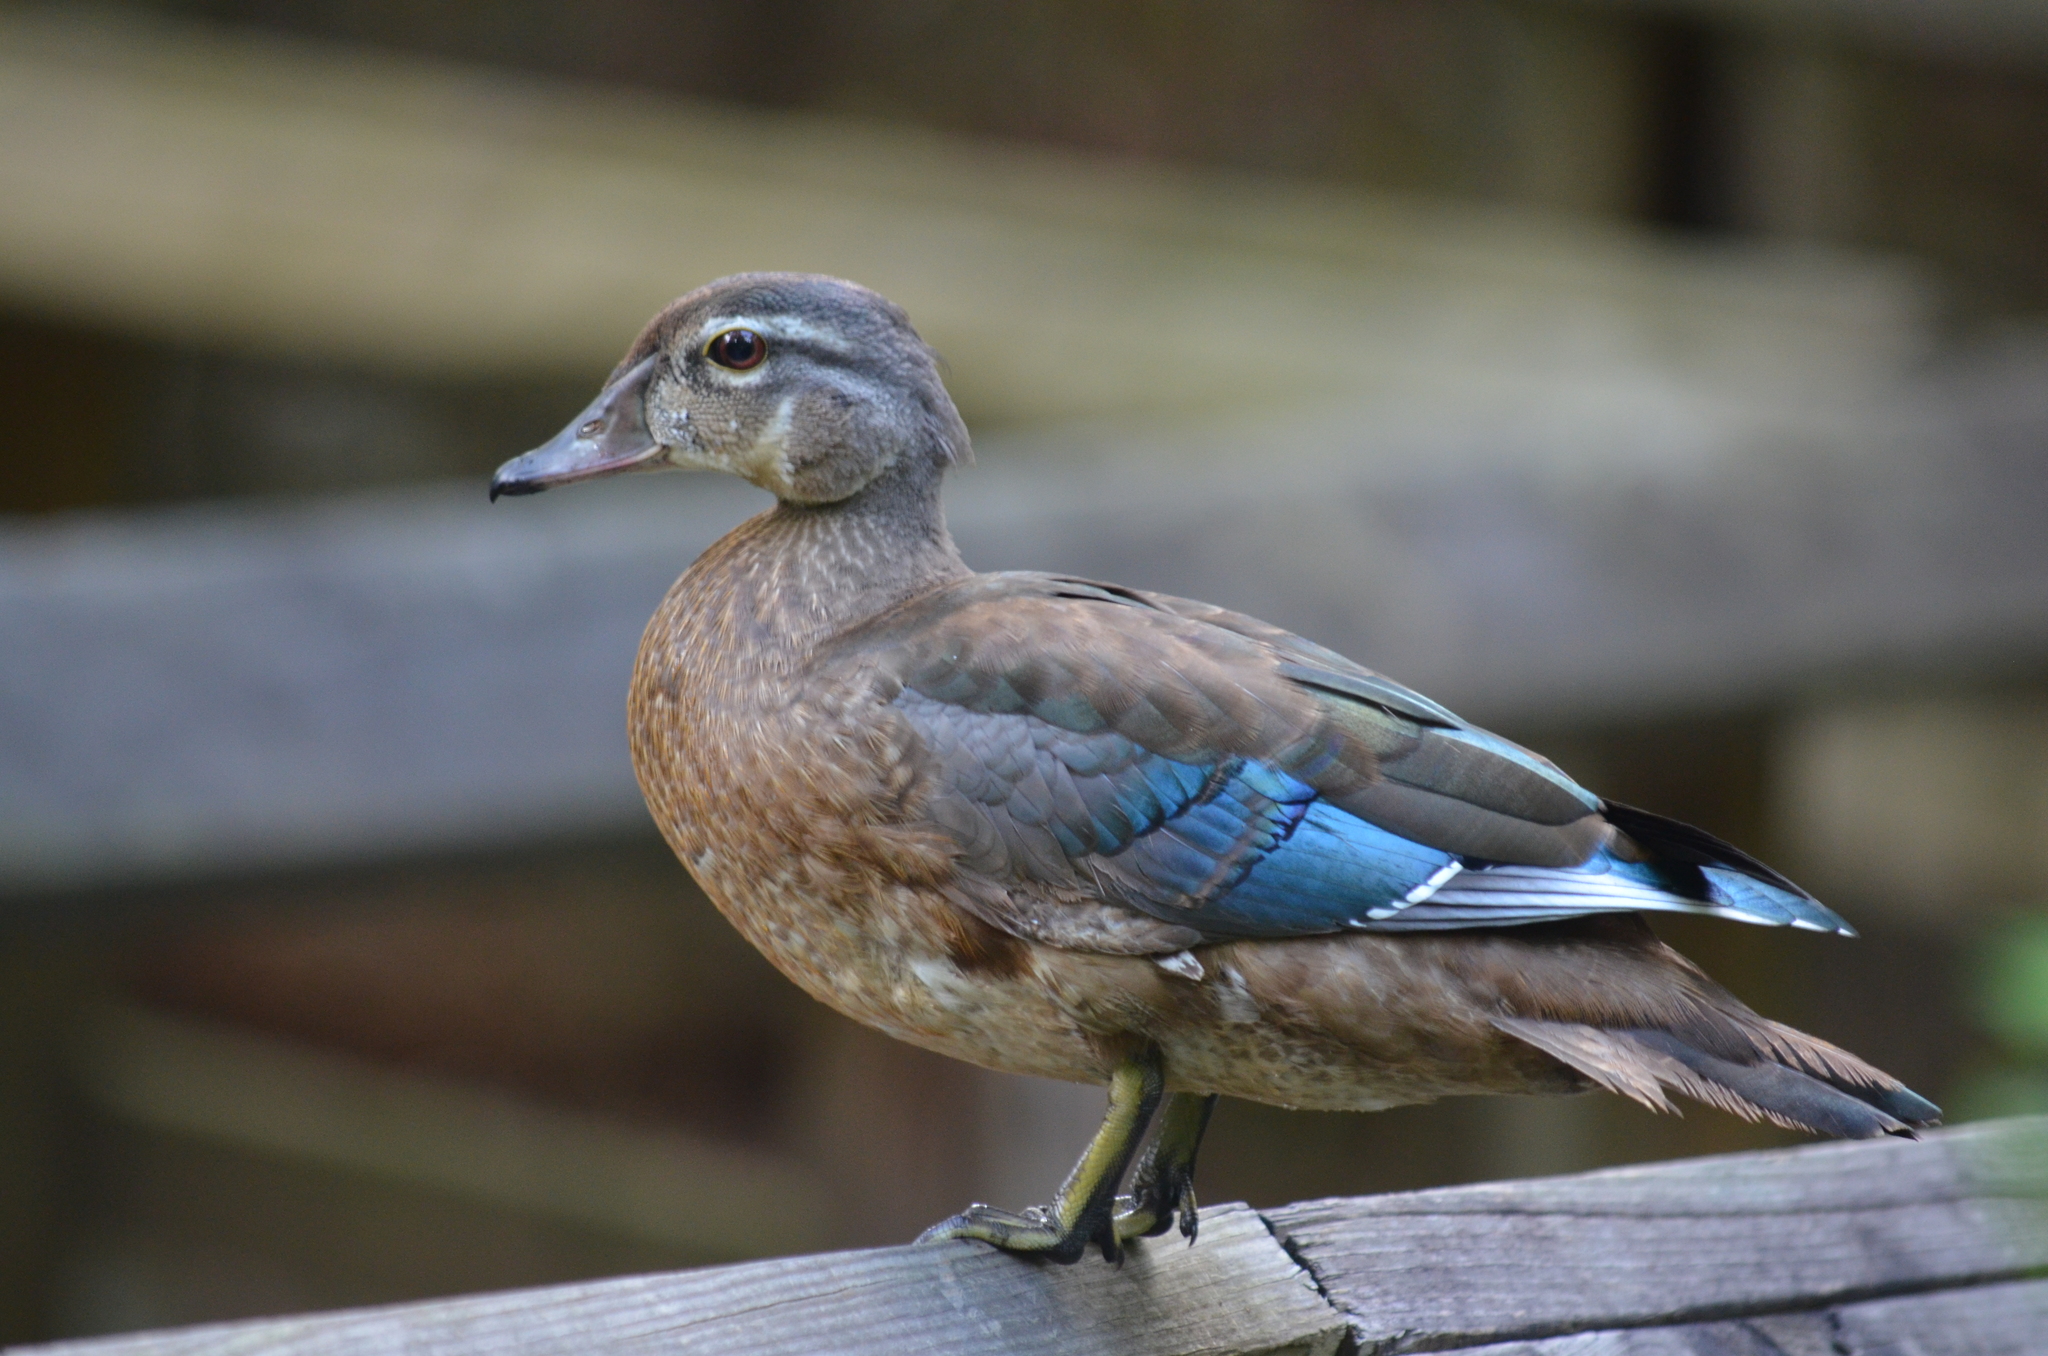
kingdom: Animalia
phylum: Chordata
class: Aves
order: Anseriformes
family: Anatidae
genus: Aix
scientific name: Aix sponsa
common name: Wood duck
